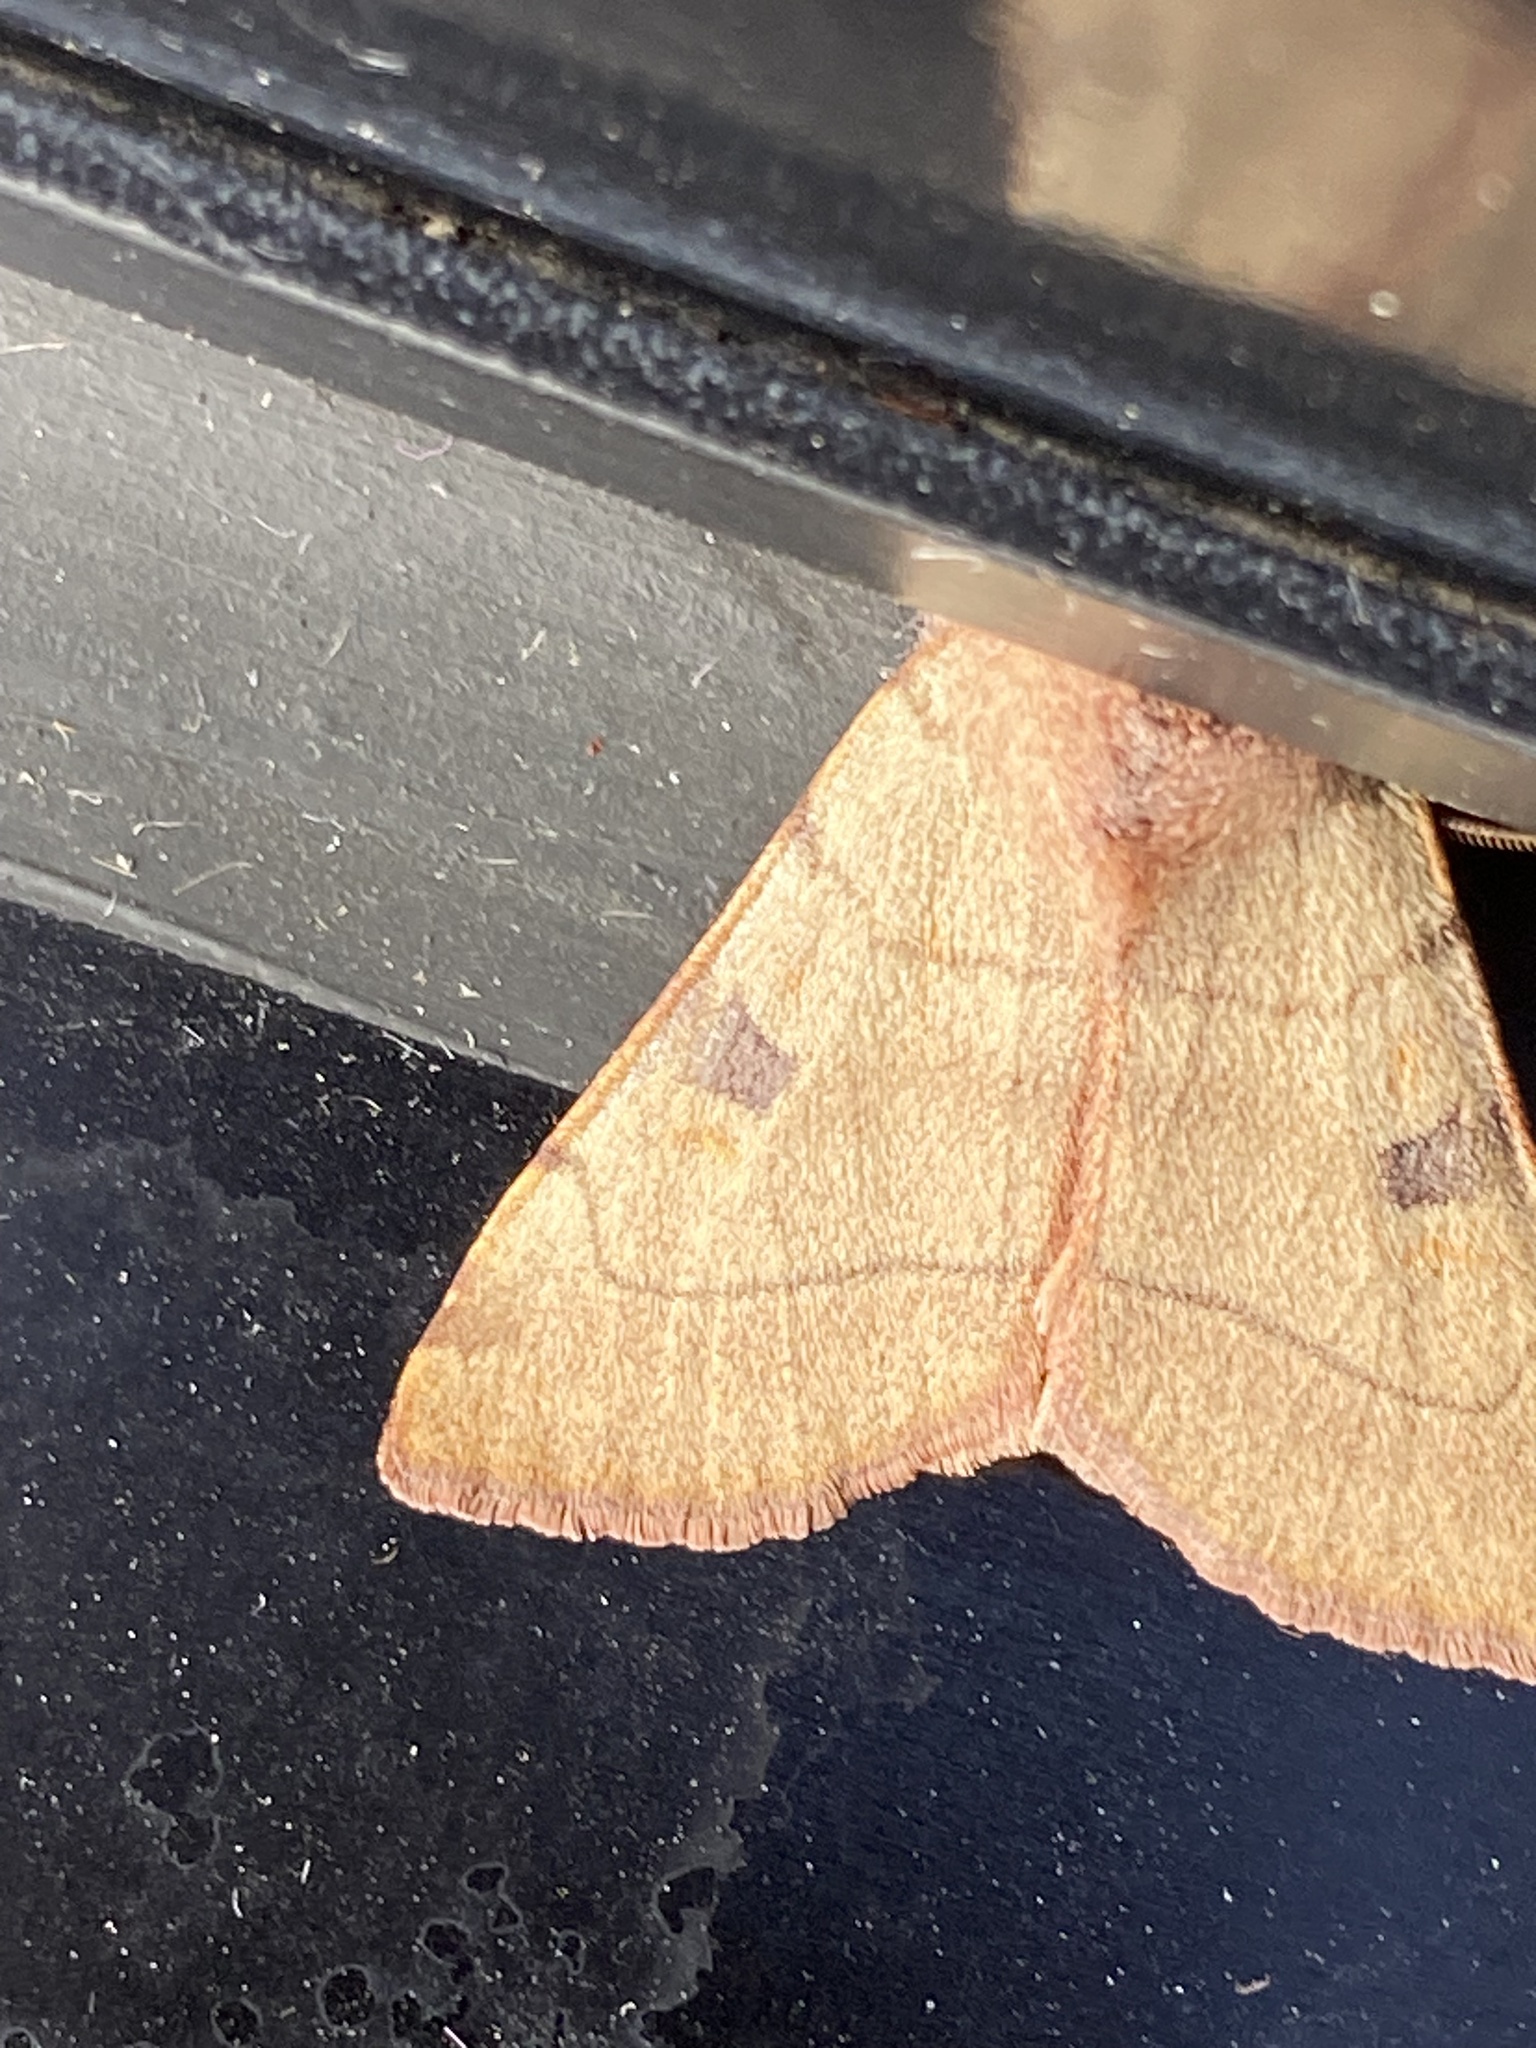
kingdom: Animalia
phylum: Arthropoda
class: Insecta
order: Lepidoptera
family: Noctuidae
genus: Choephora
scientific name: Choephora fungorum
